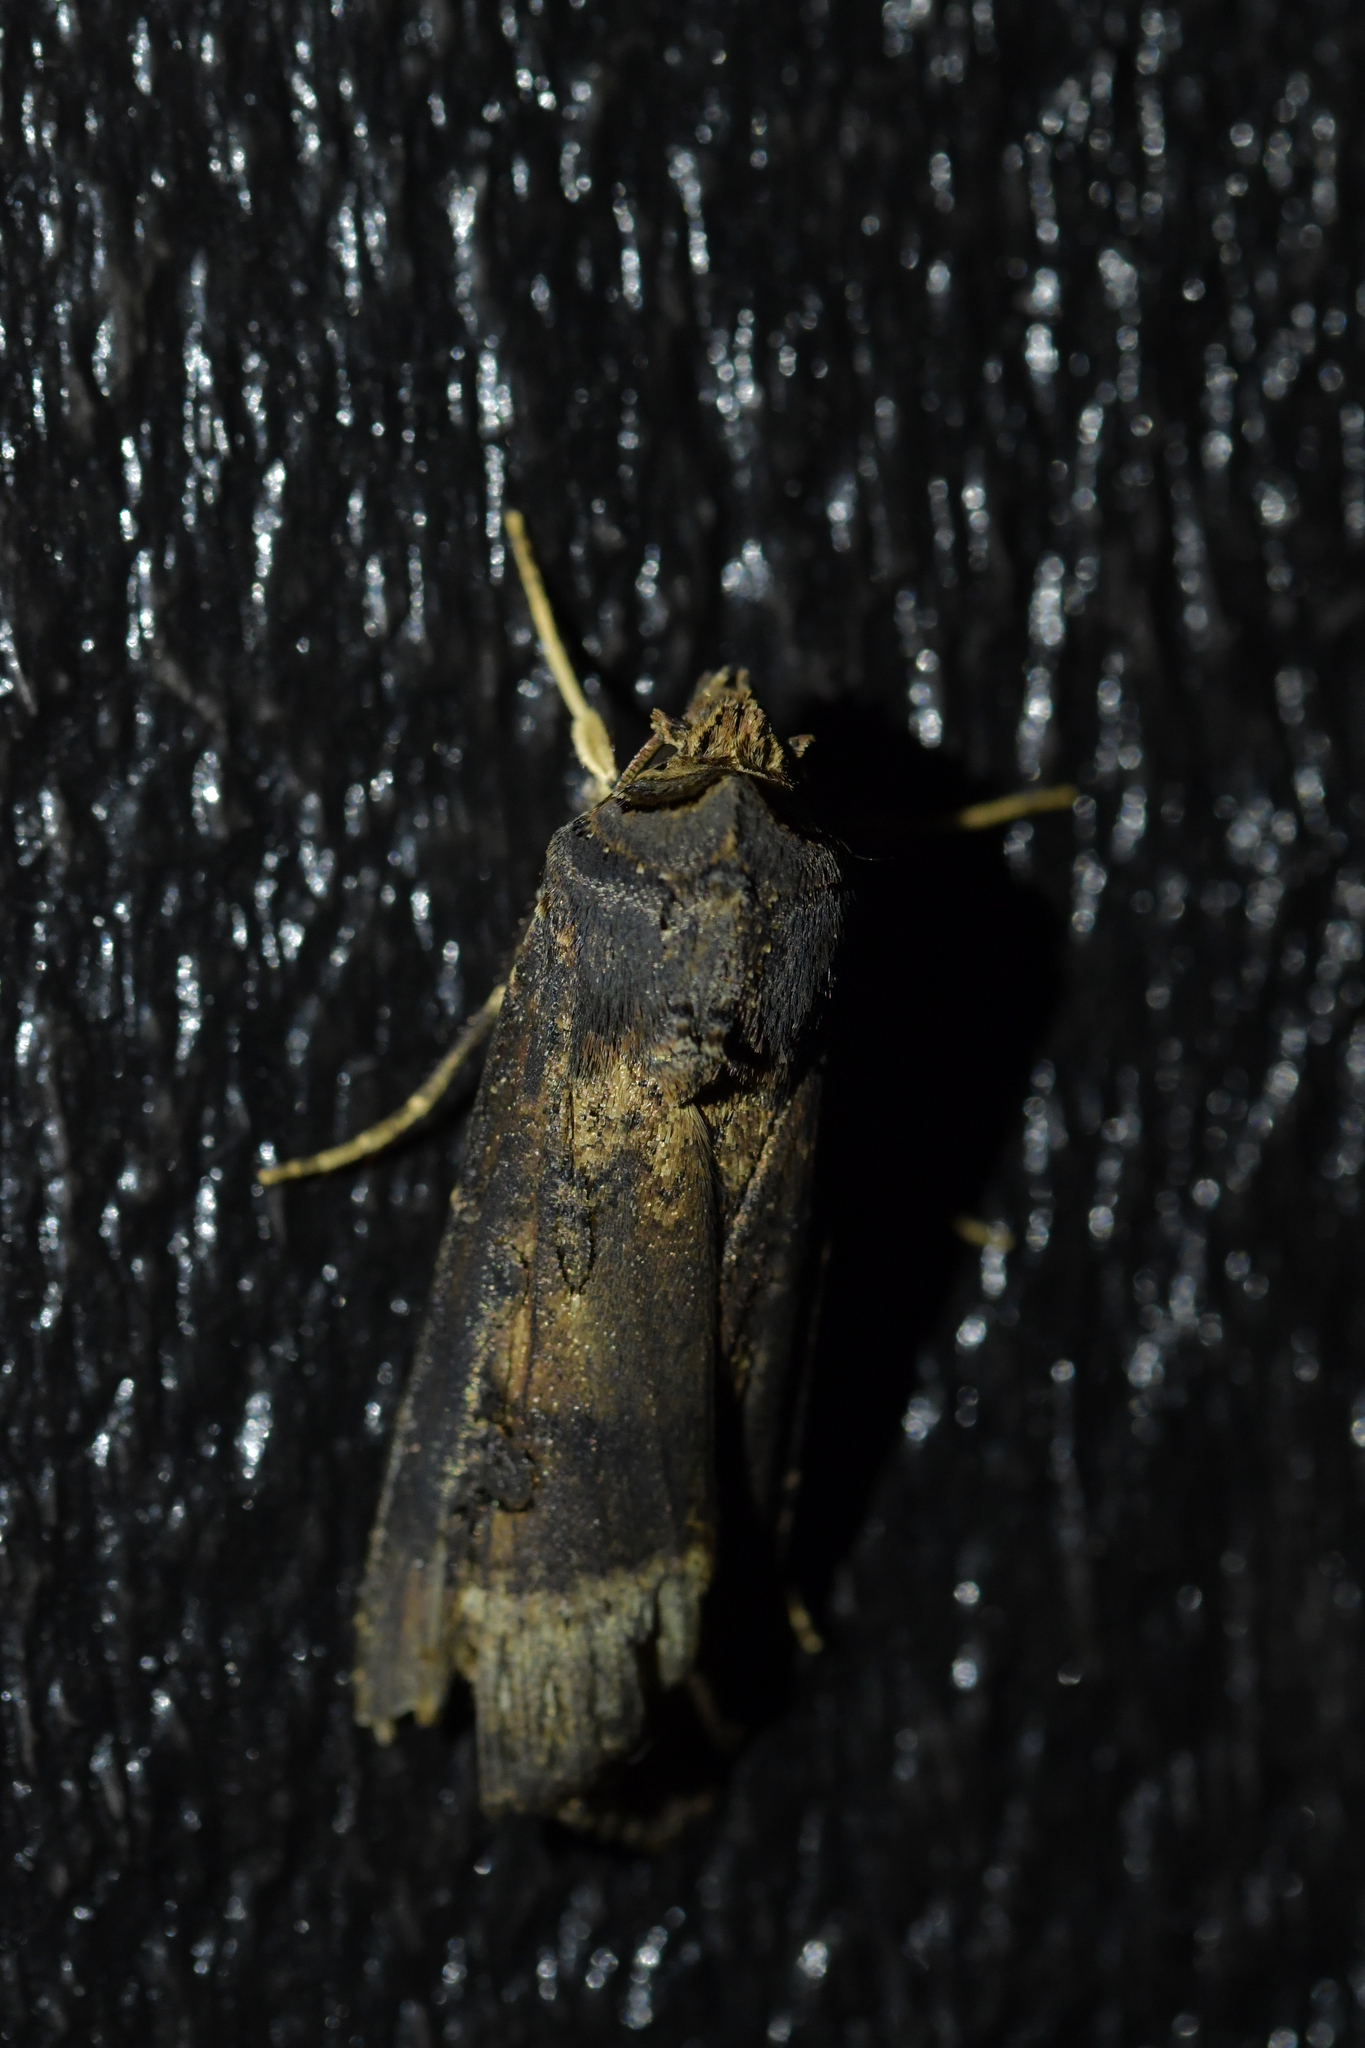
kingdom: Animalia
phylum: Arthropoda
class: Insecta
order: Lepidoptera
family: Noctuidae
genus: Agrotis
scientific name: Agrotis ipsilon
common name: Dark sword-grass
